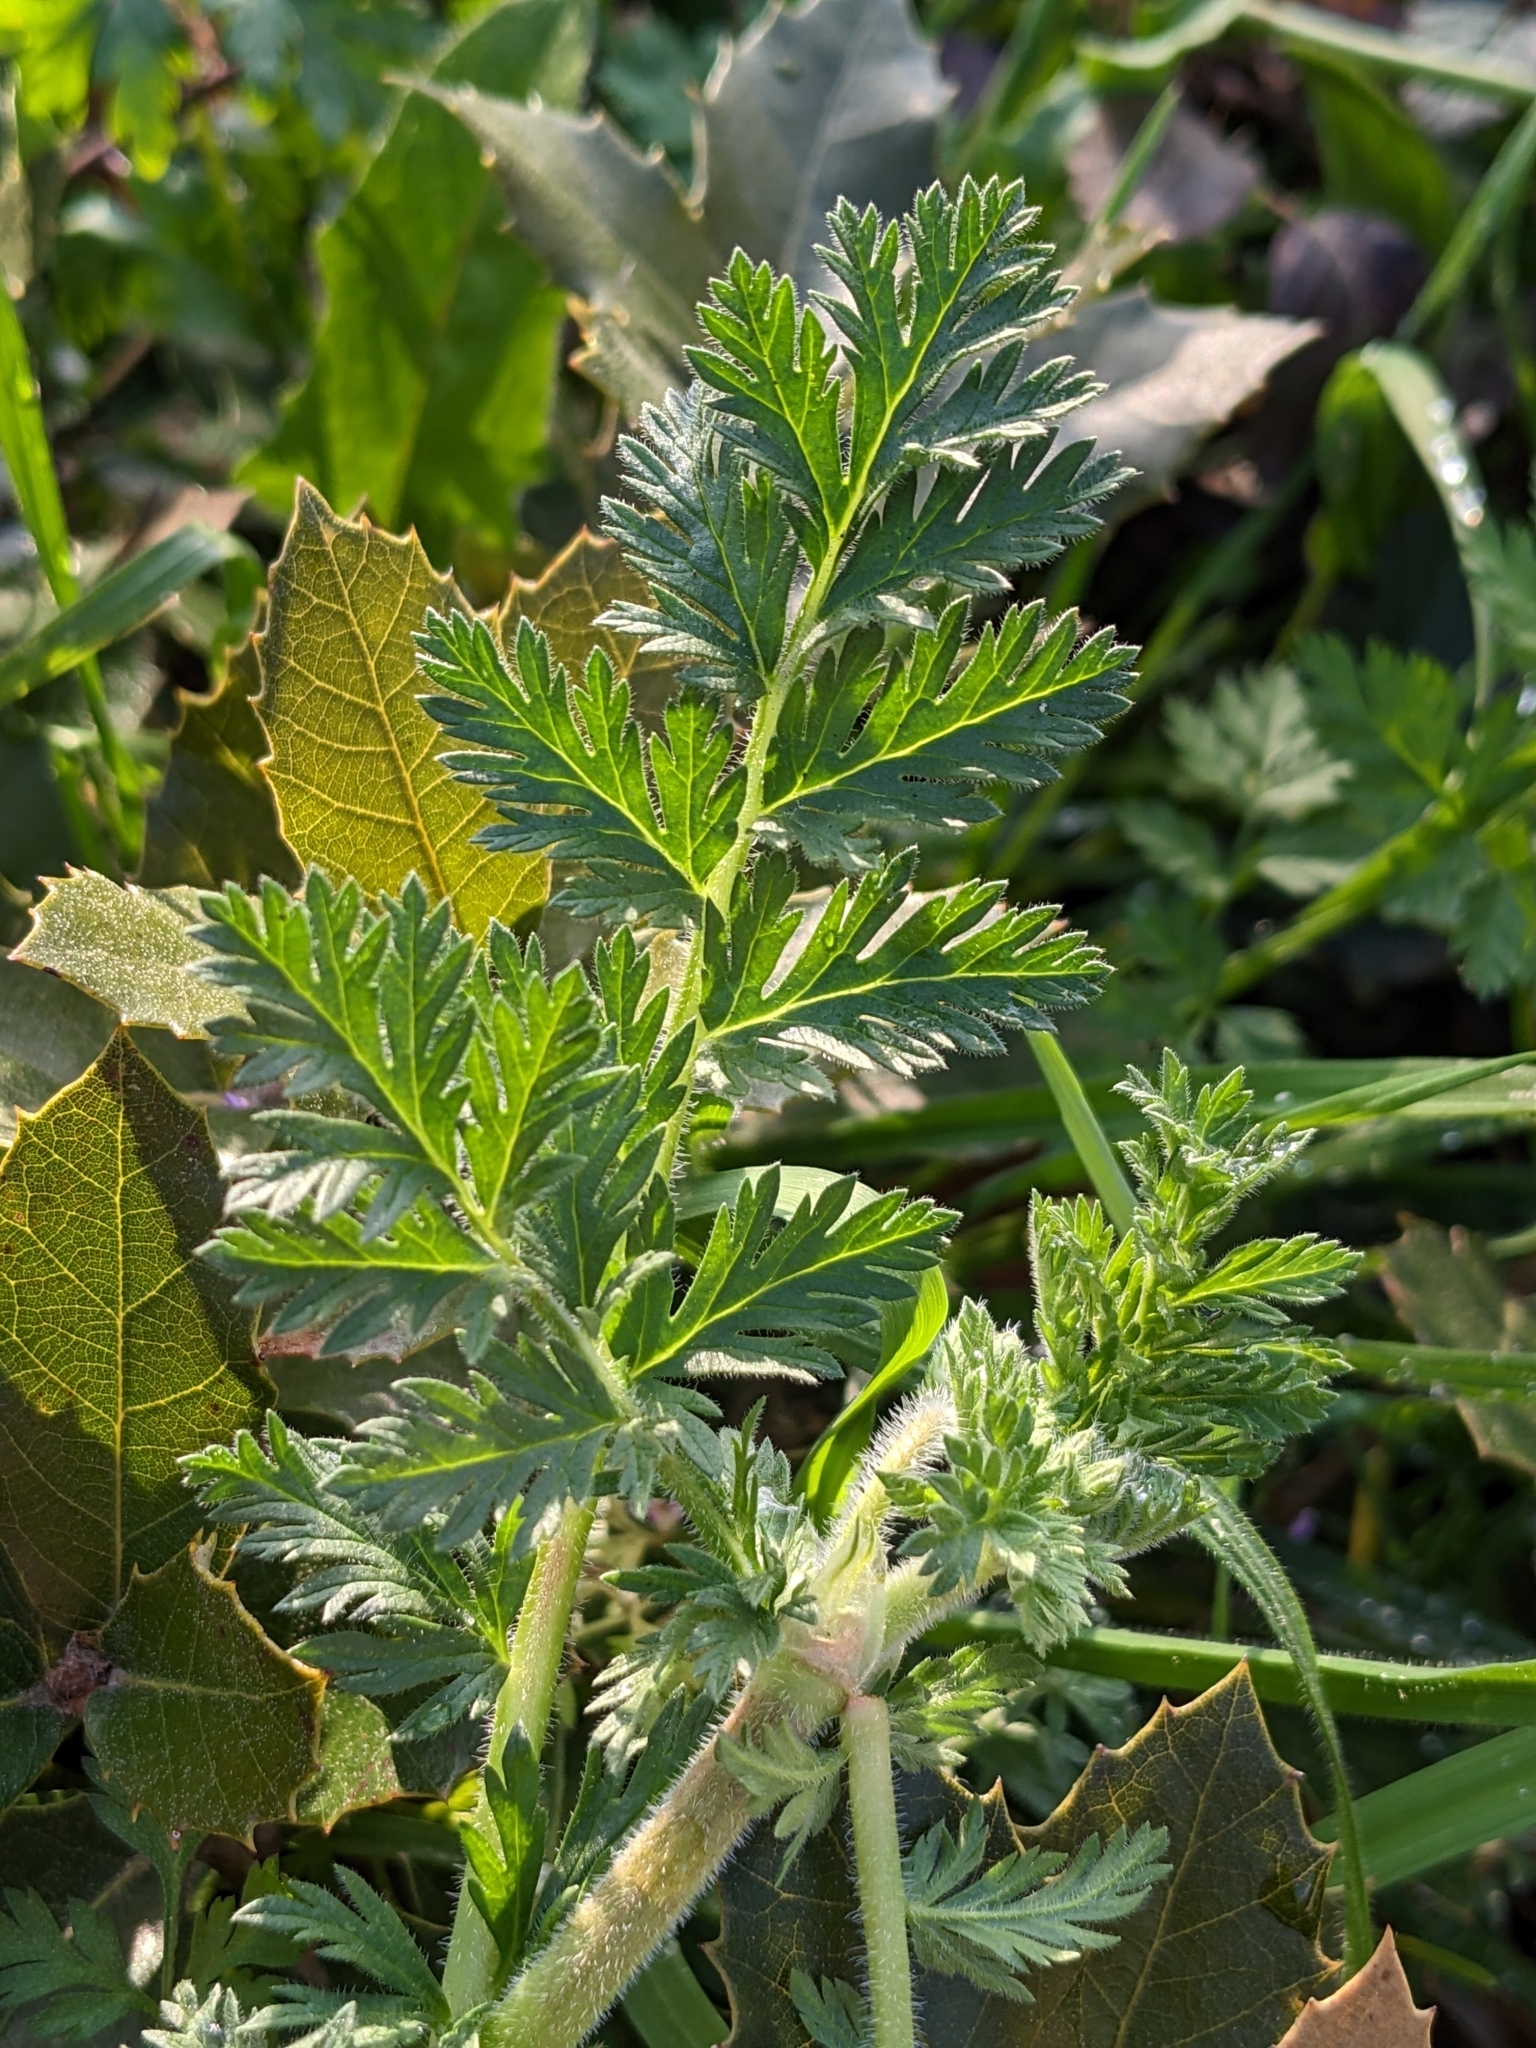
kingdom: Plantae
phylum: Tracheophyta
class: Magnoliopsida
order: Geraniales
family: Geraniaceae
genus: Erodium
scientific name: Erodium ciconium
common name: Common stork's bill
